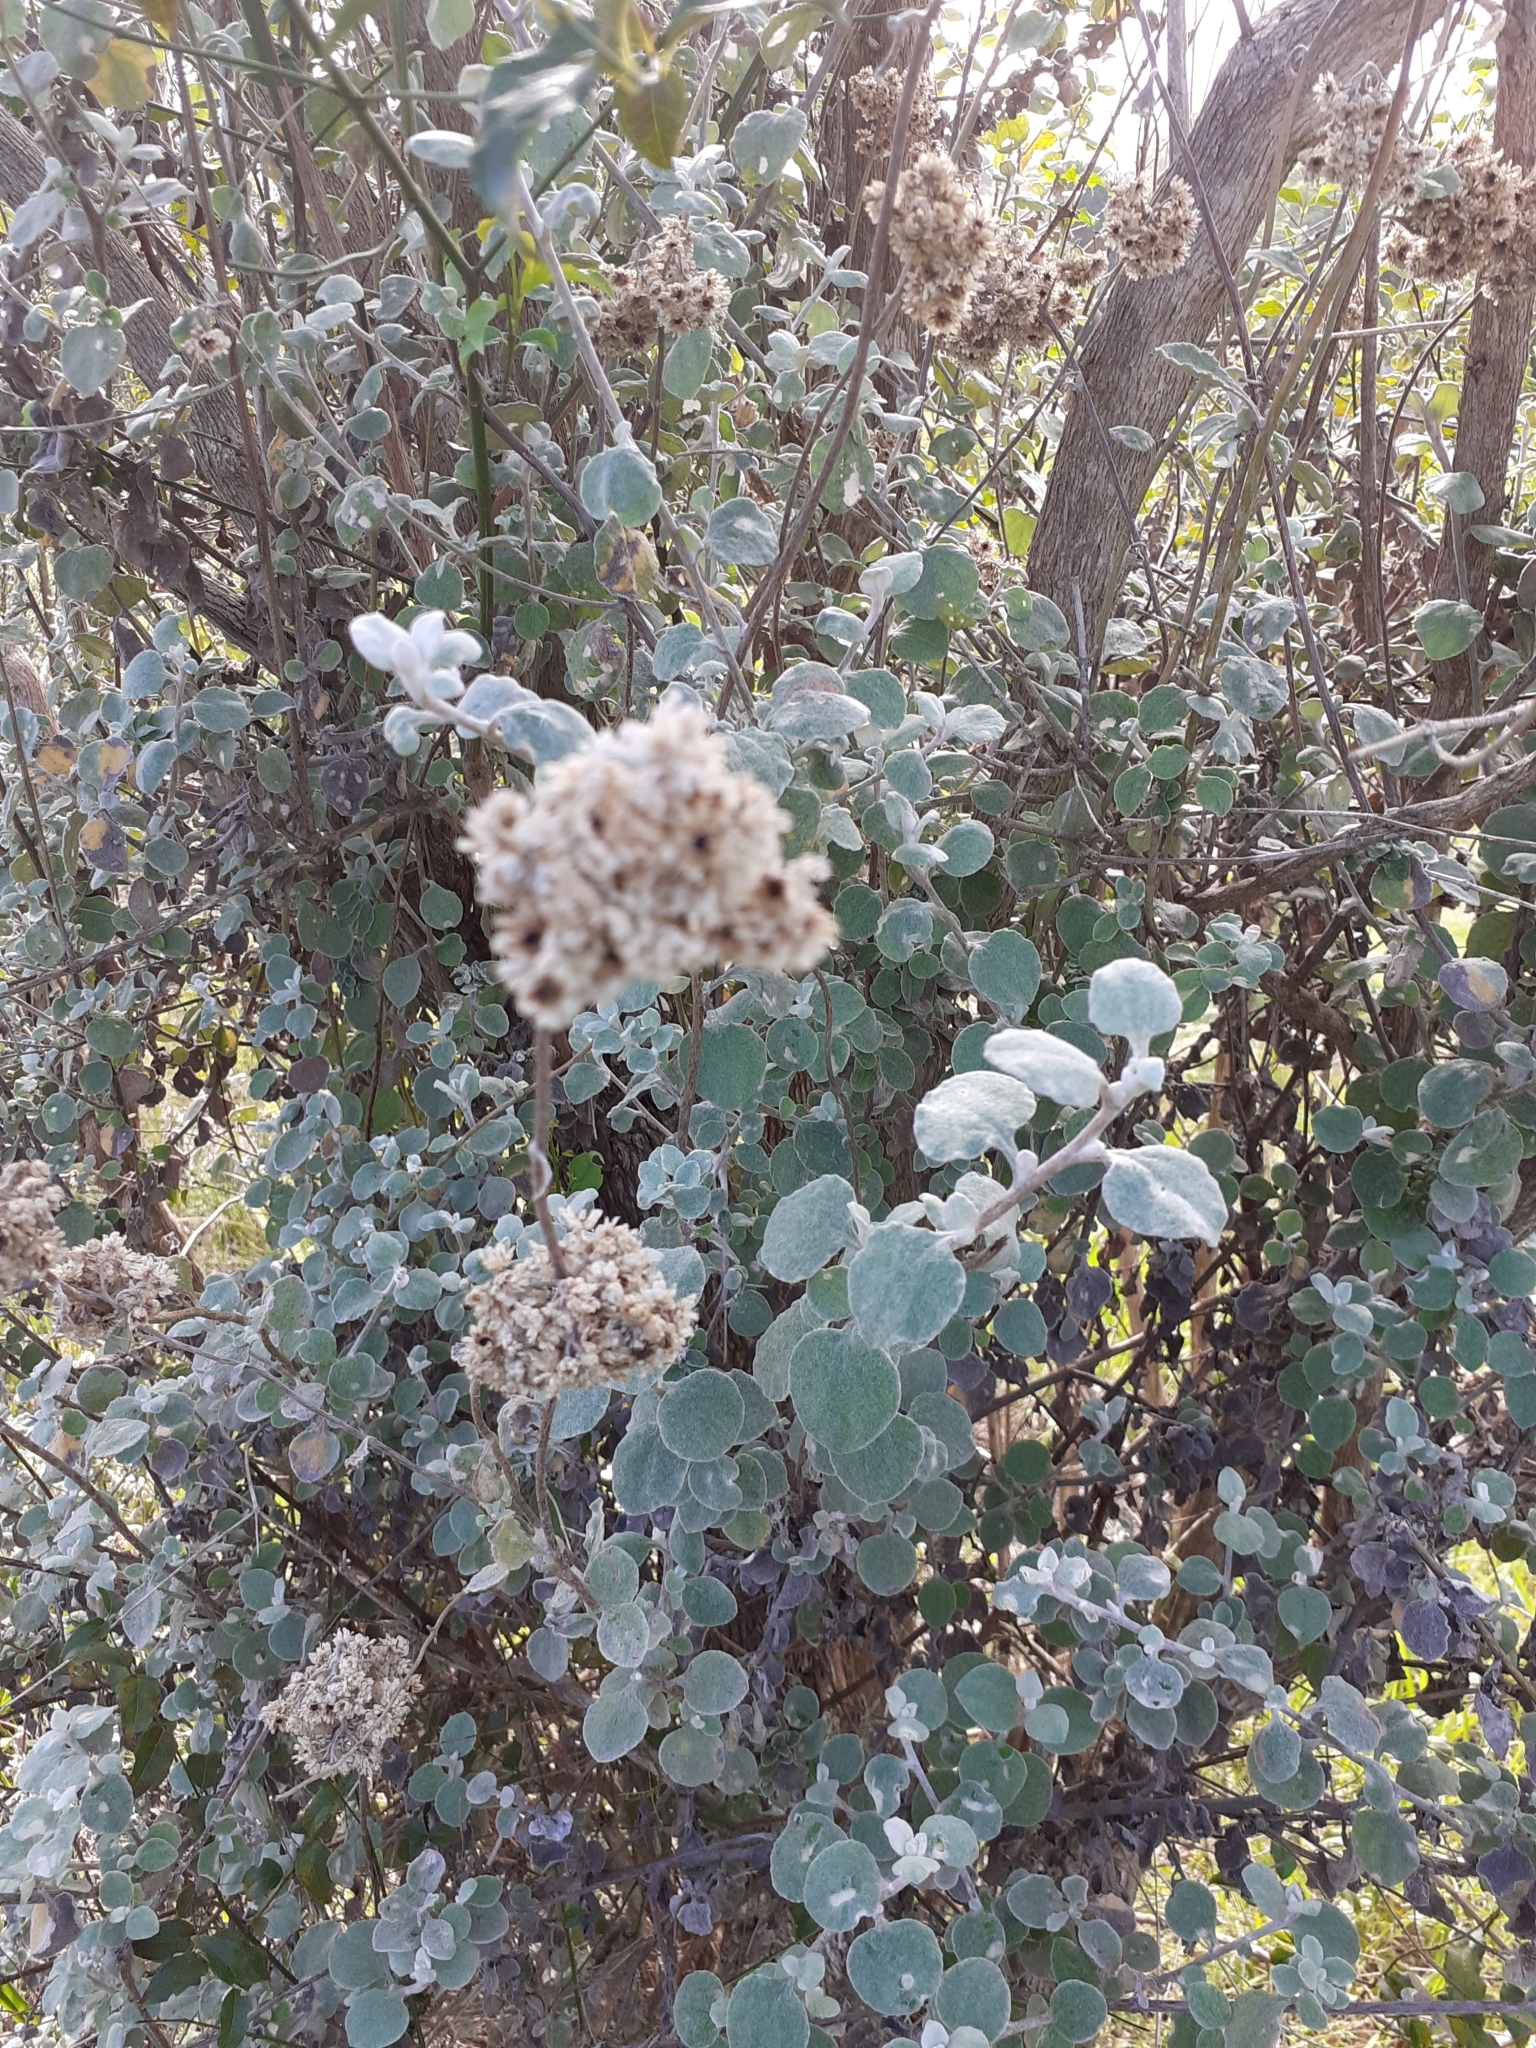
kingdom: Plantae
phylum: Tracheophyta
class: Magnoliopsida
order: Asterales
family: Asteraceae
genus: Helichrysum
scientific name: Helichrysum petiolare
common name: Licorice-plant
